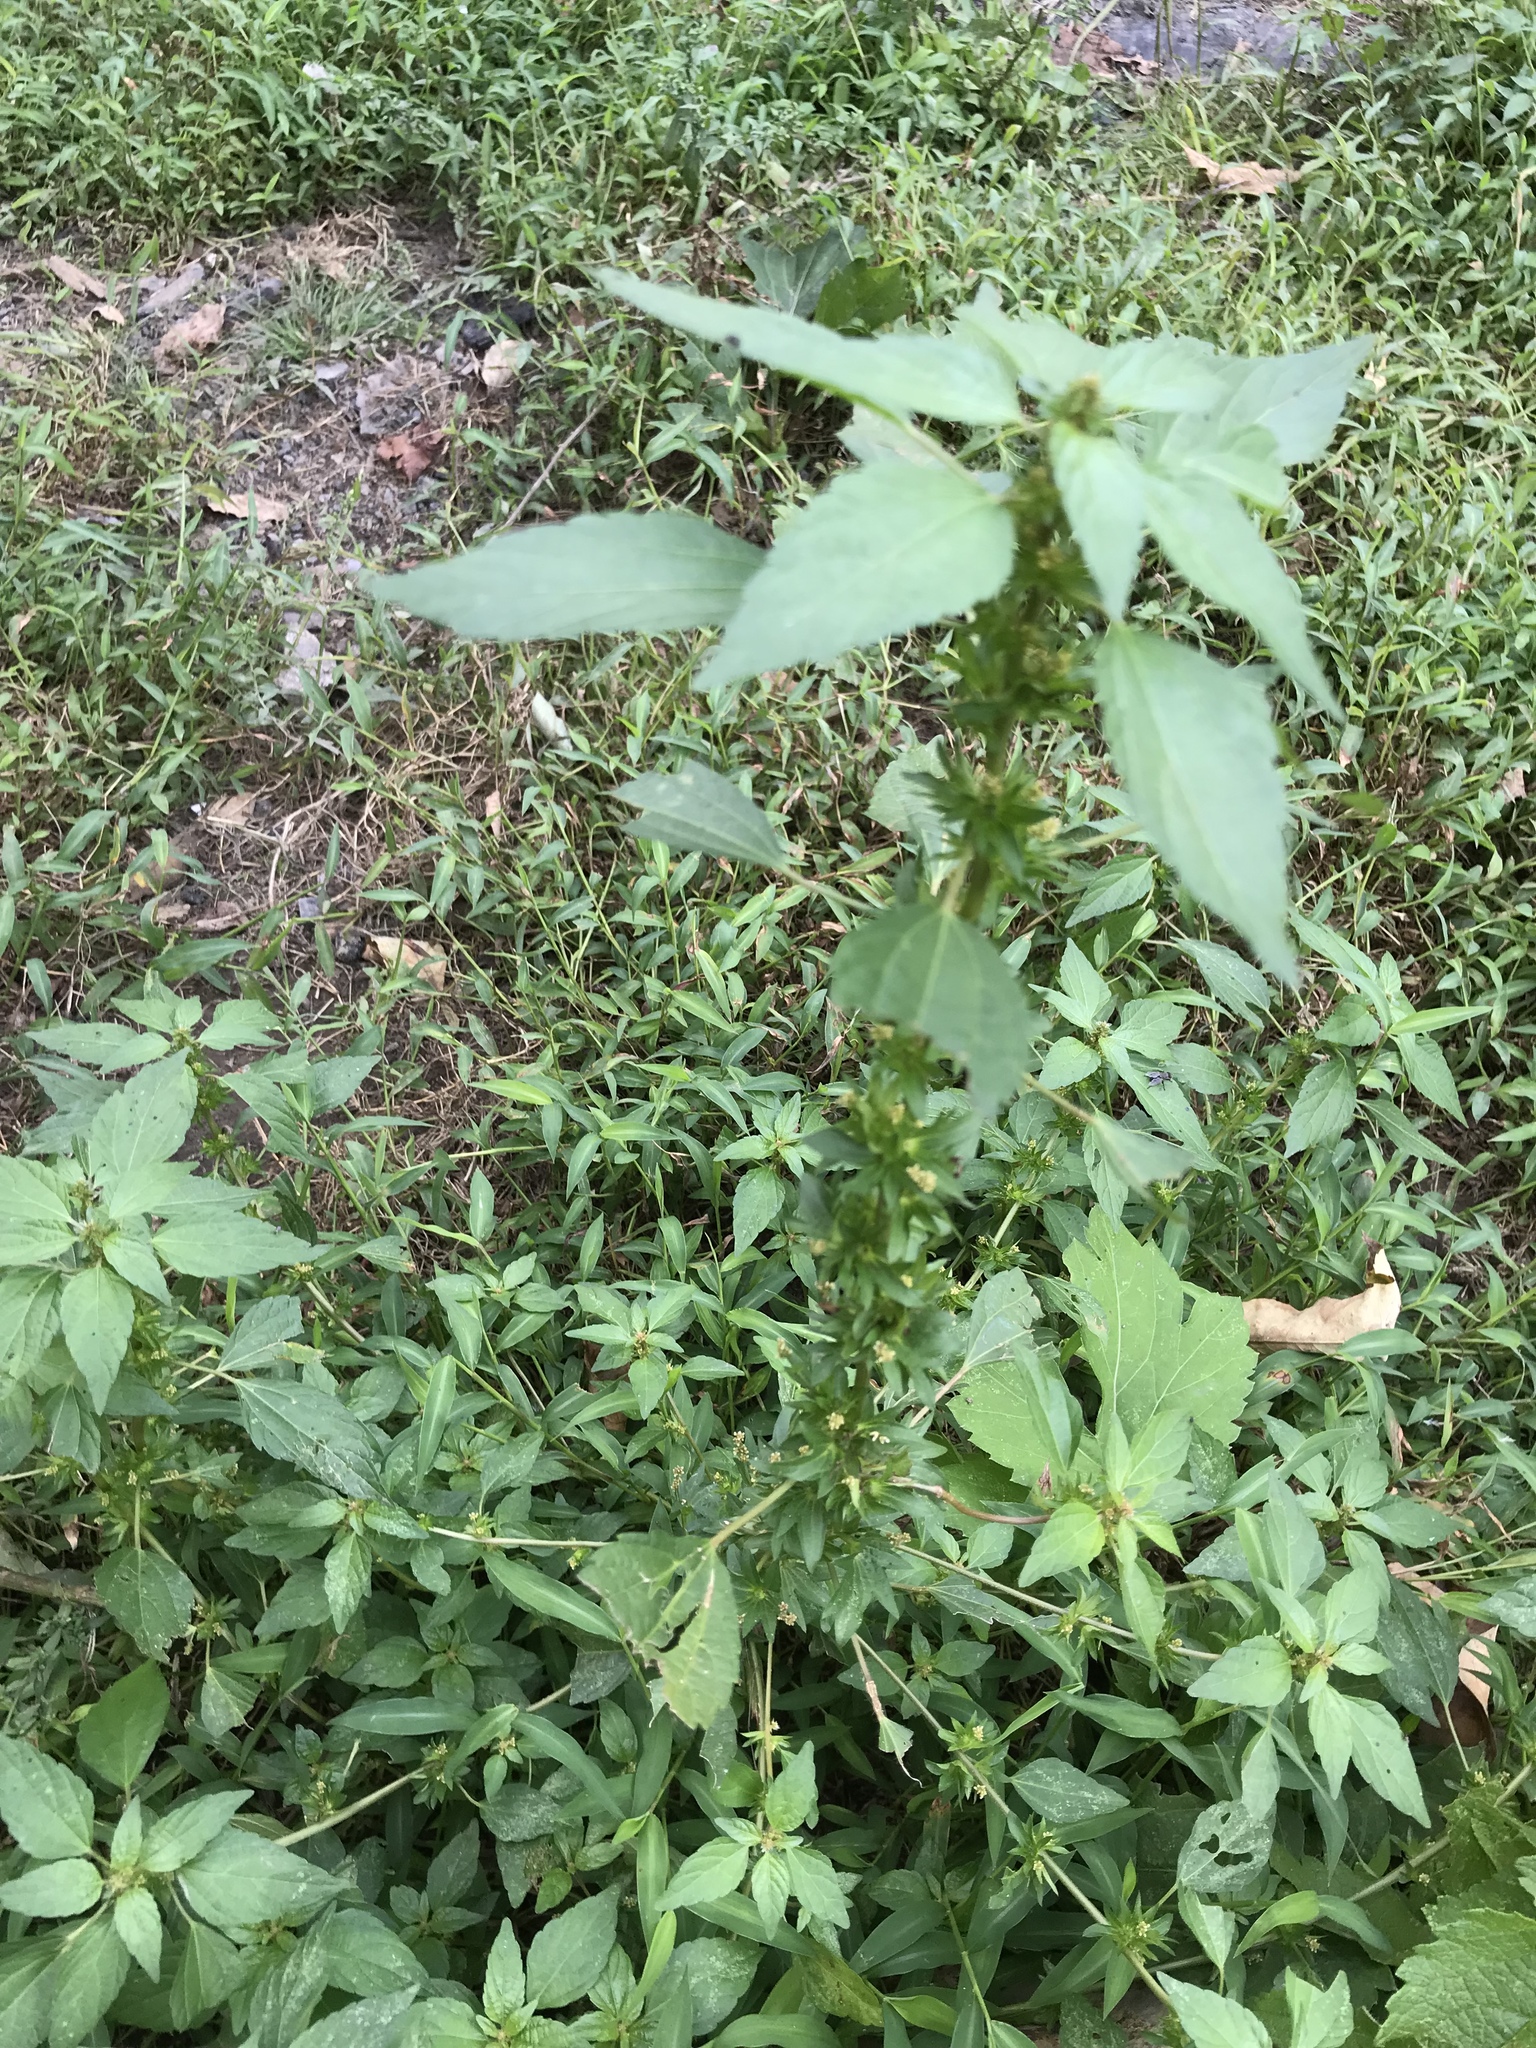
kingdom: Plantae
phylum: Tracheophyta
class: Magnoliopsida
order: Malpighiales
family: Euphorbiaceae
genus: Acalypha
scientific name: Acalypha rhomboidea
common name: Rhombic copperleaf
